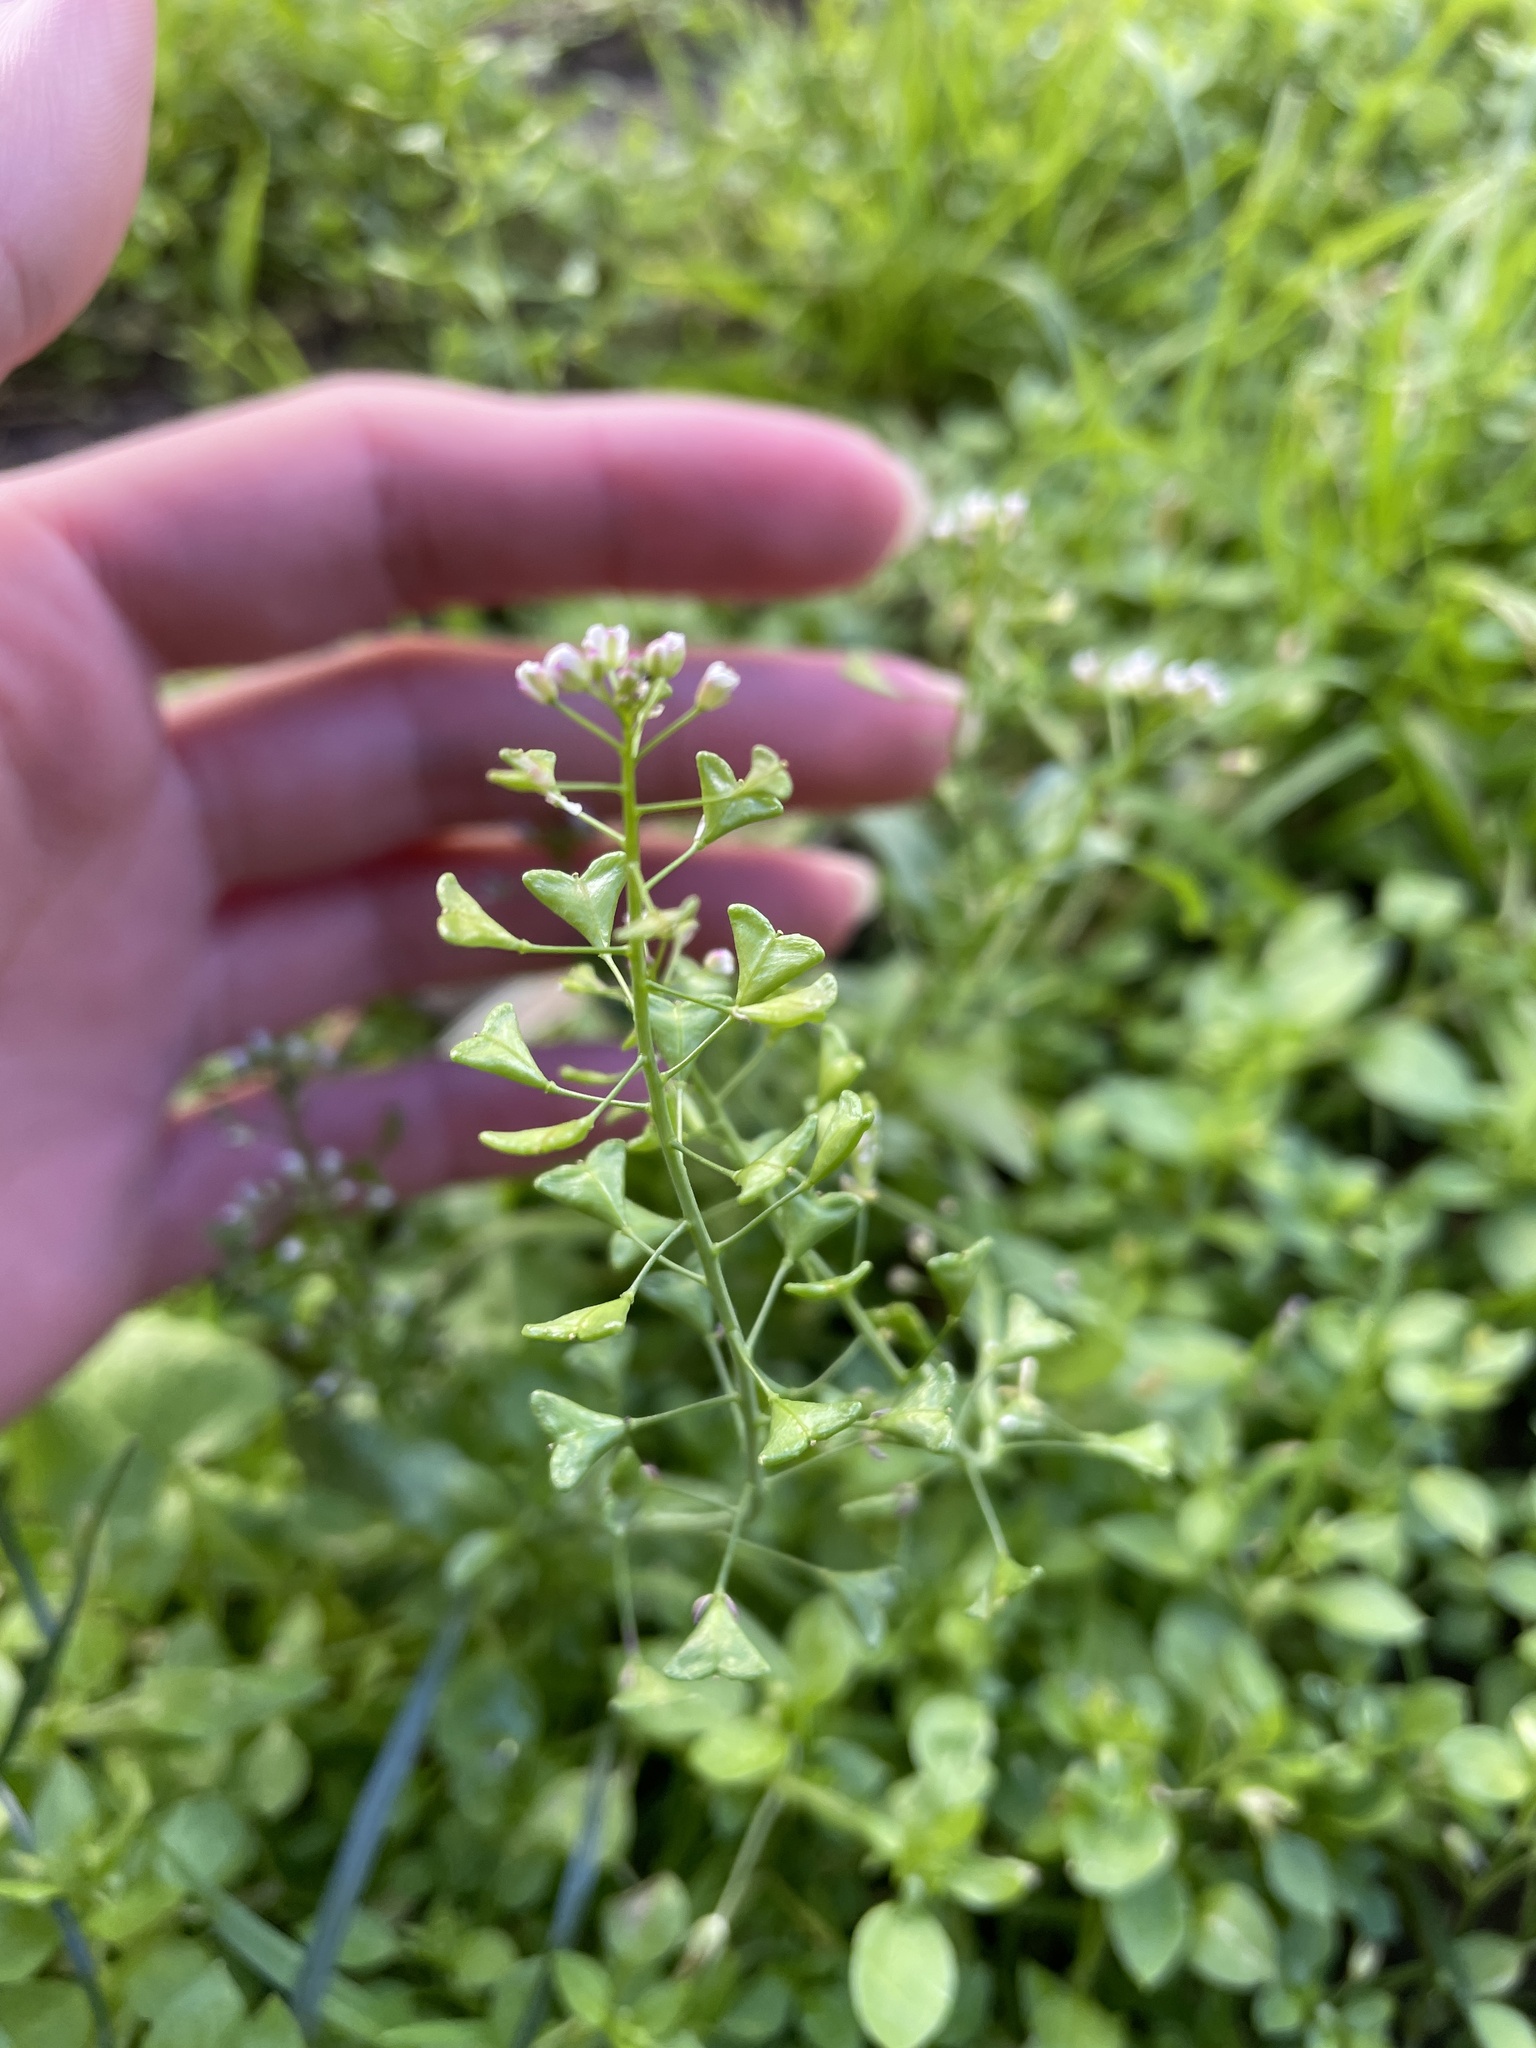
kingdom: Plantae
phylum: Tracheophyta
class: Magnoliopsida
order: Brassicales
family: Brassicaceae
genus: Capsella
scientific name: Capsella bursa-pastoris
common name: Shepherd's purse
